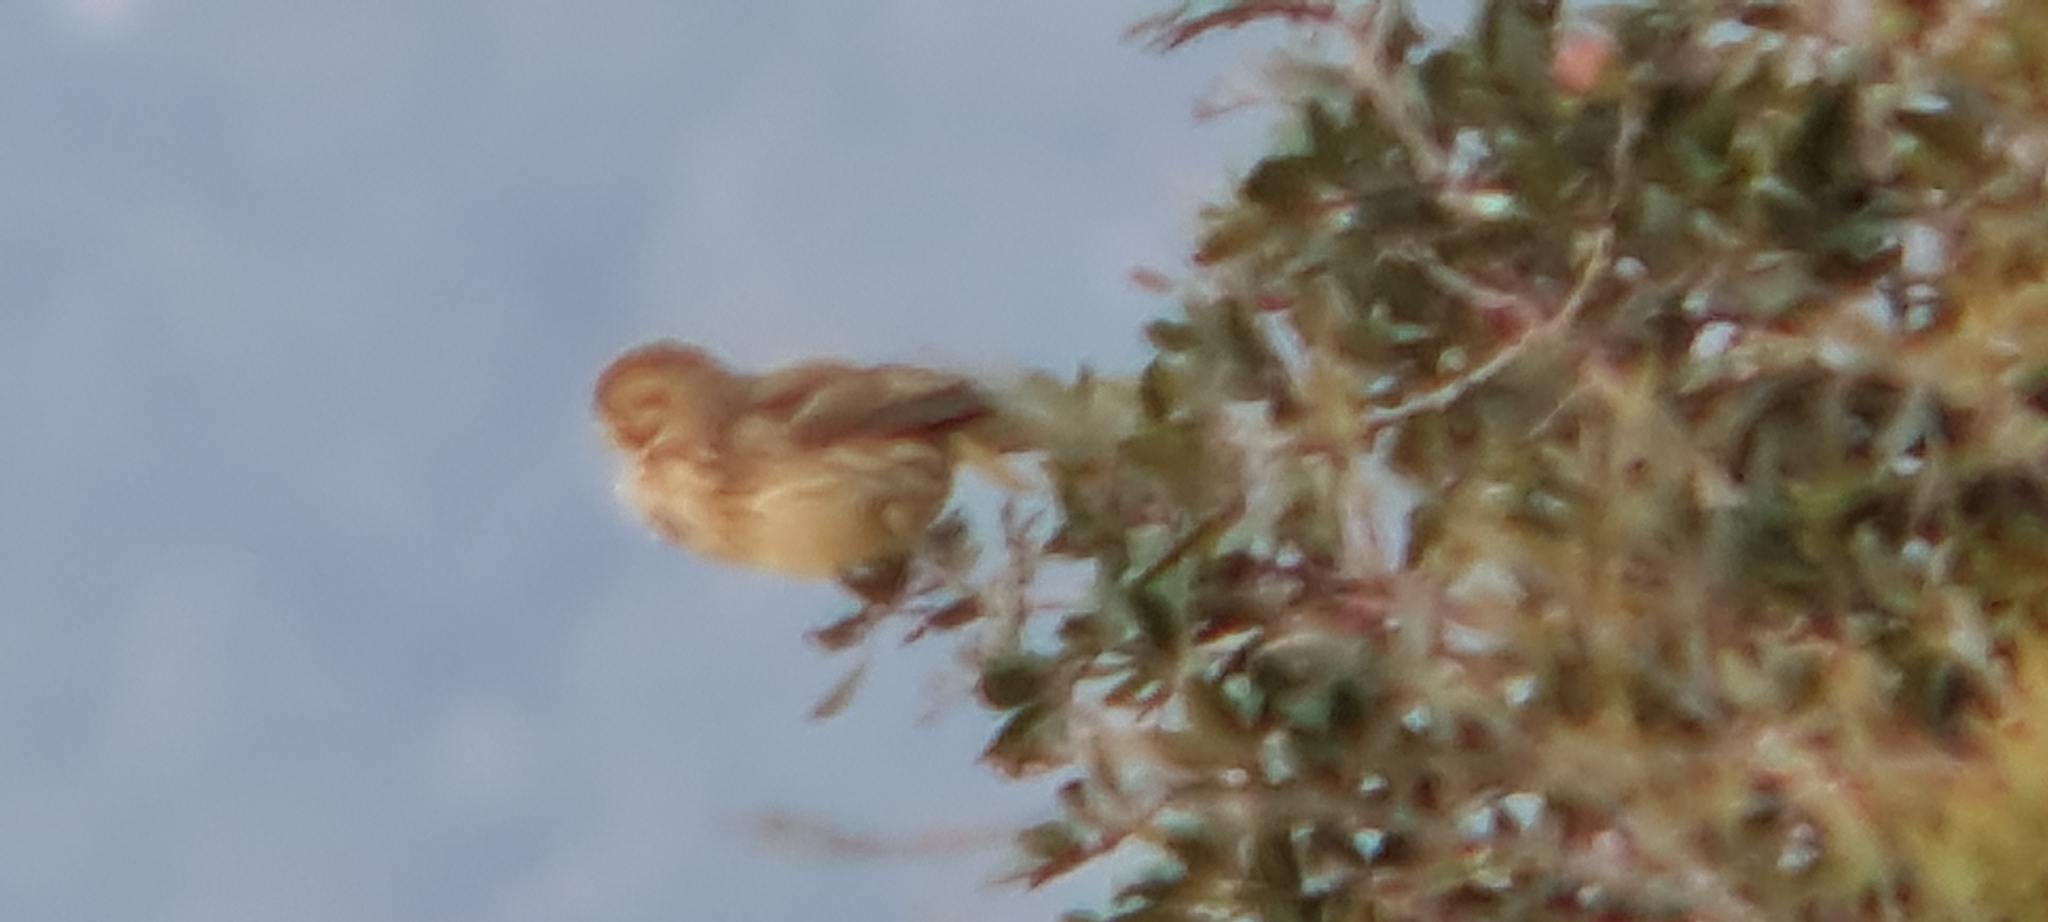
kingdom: Animalia
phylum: Chordata
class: Aves
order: Passeriformes
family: Emberizidae
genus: Emberiza
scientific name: Emberiza calandra
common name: Corn bunting
